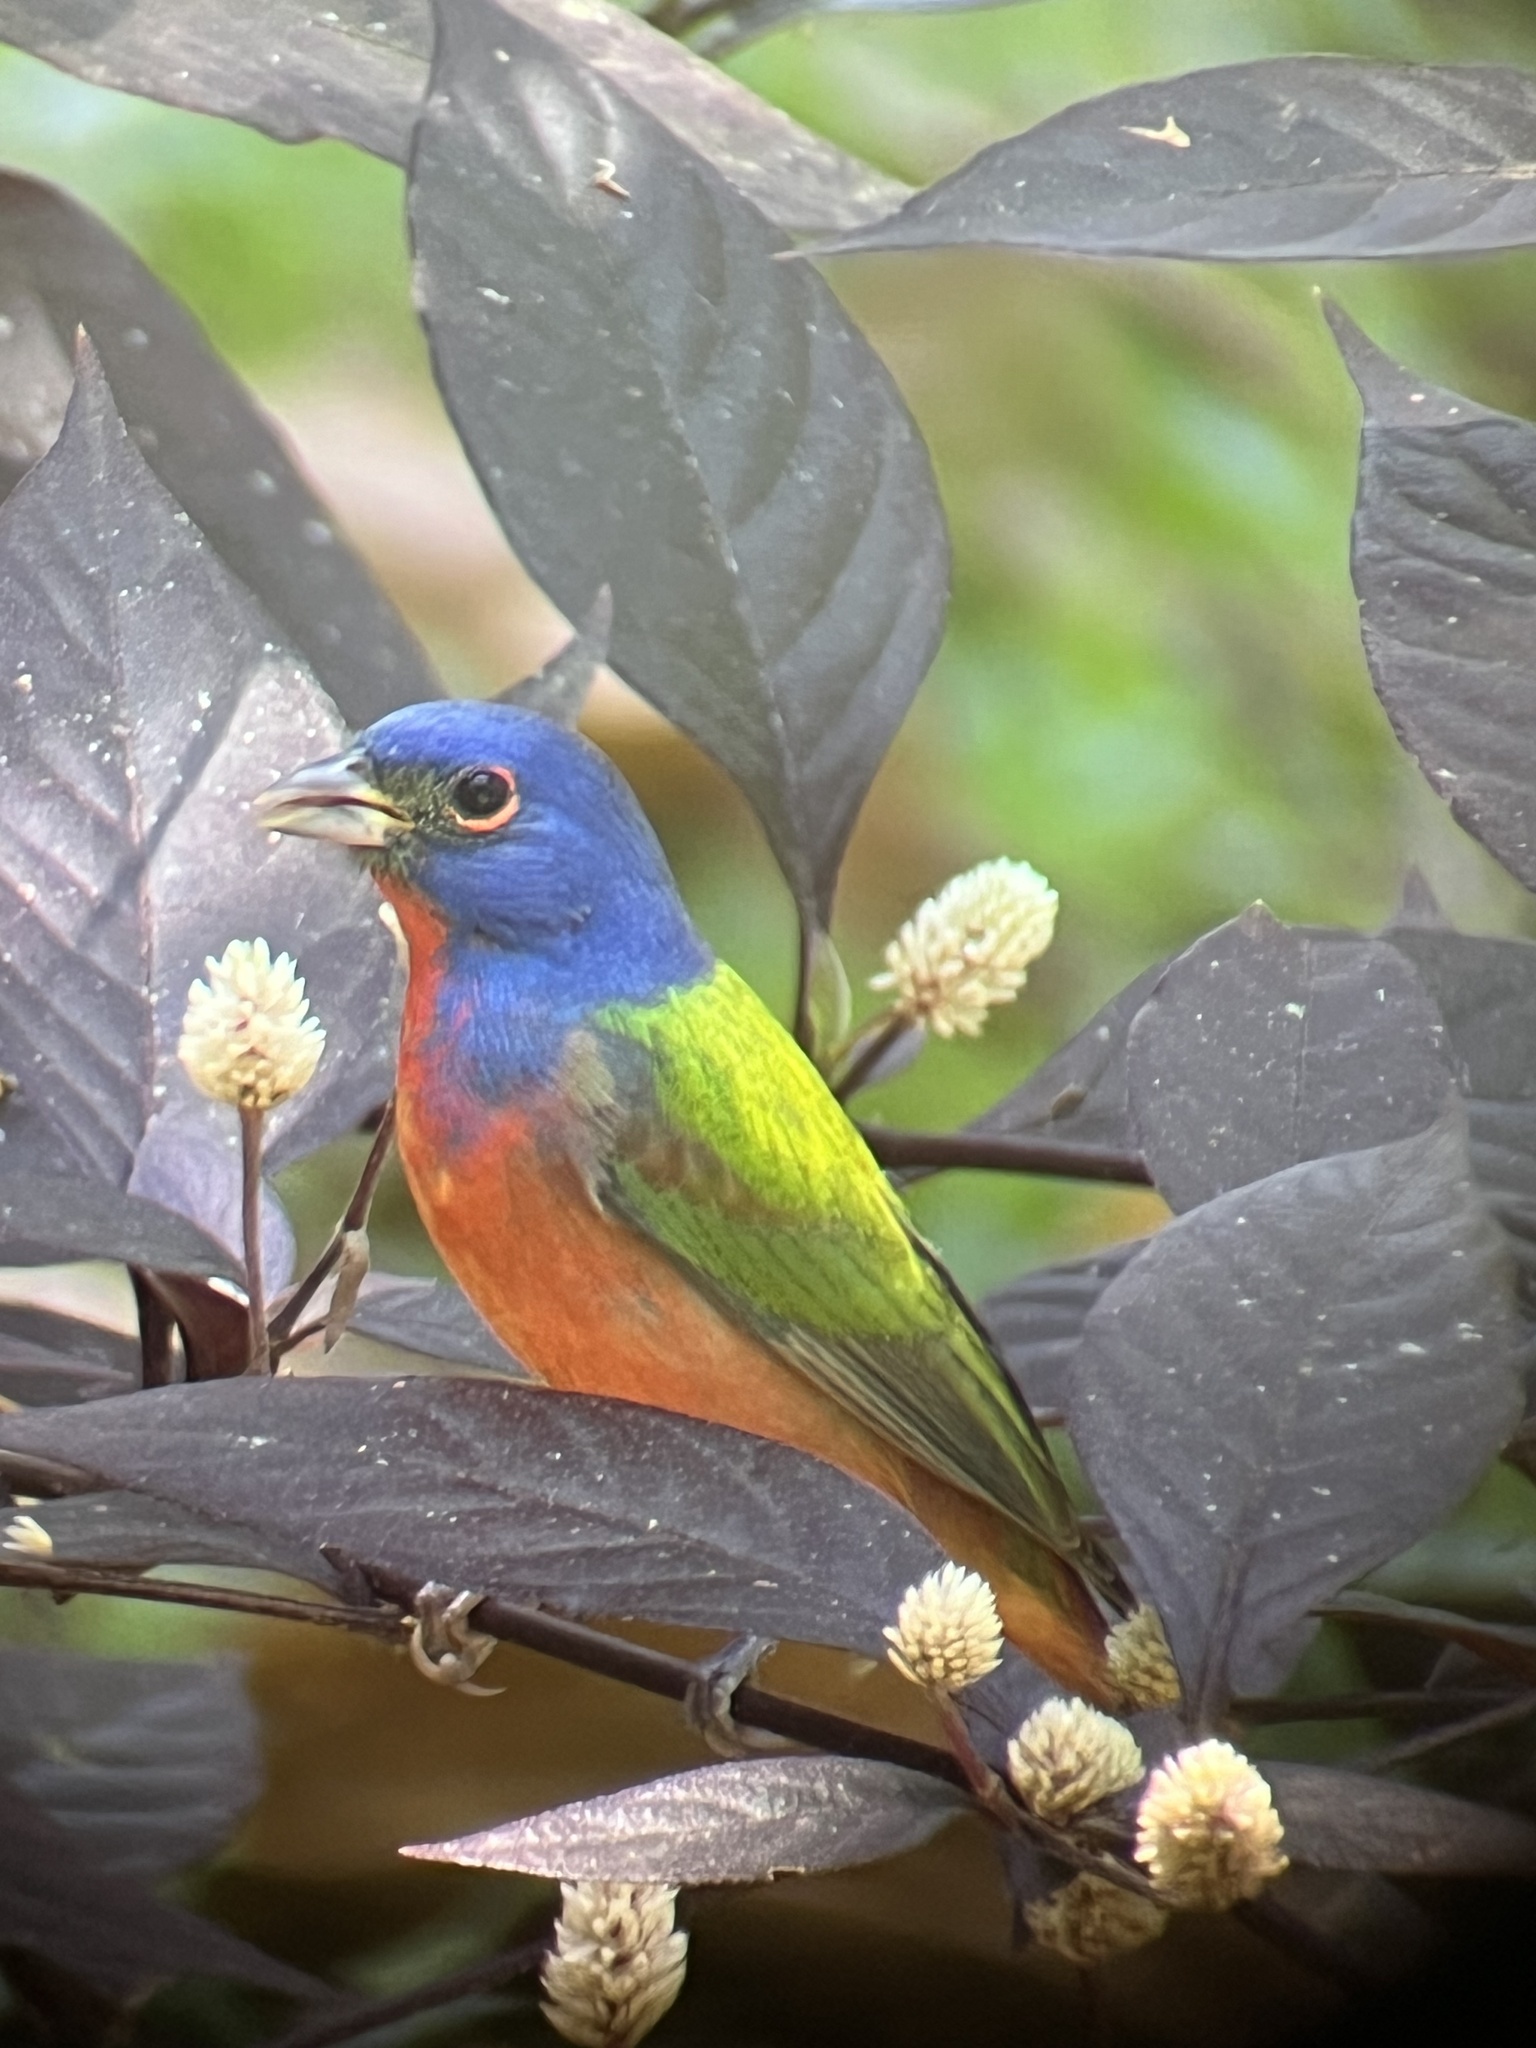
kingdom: Animalia
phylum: Chordata
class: Aves
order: Passeriformes
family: Cardinalidae
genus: Passerina
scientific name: Passerina ciris
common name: Painted bunting
